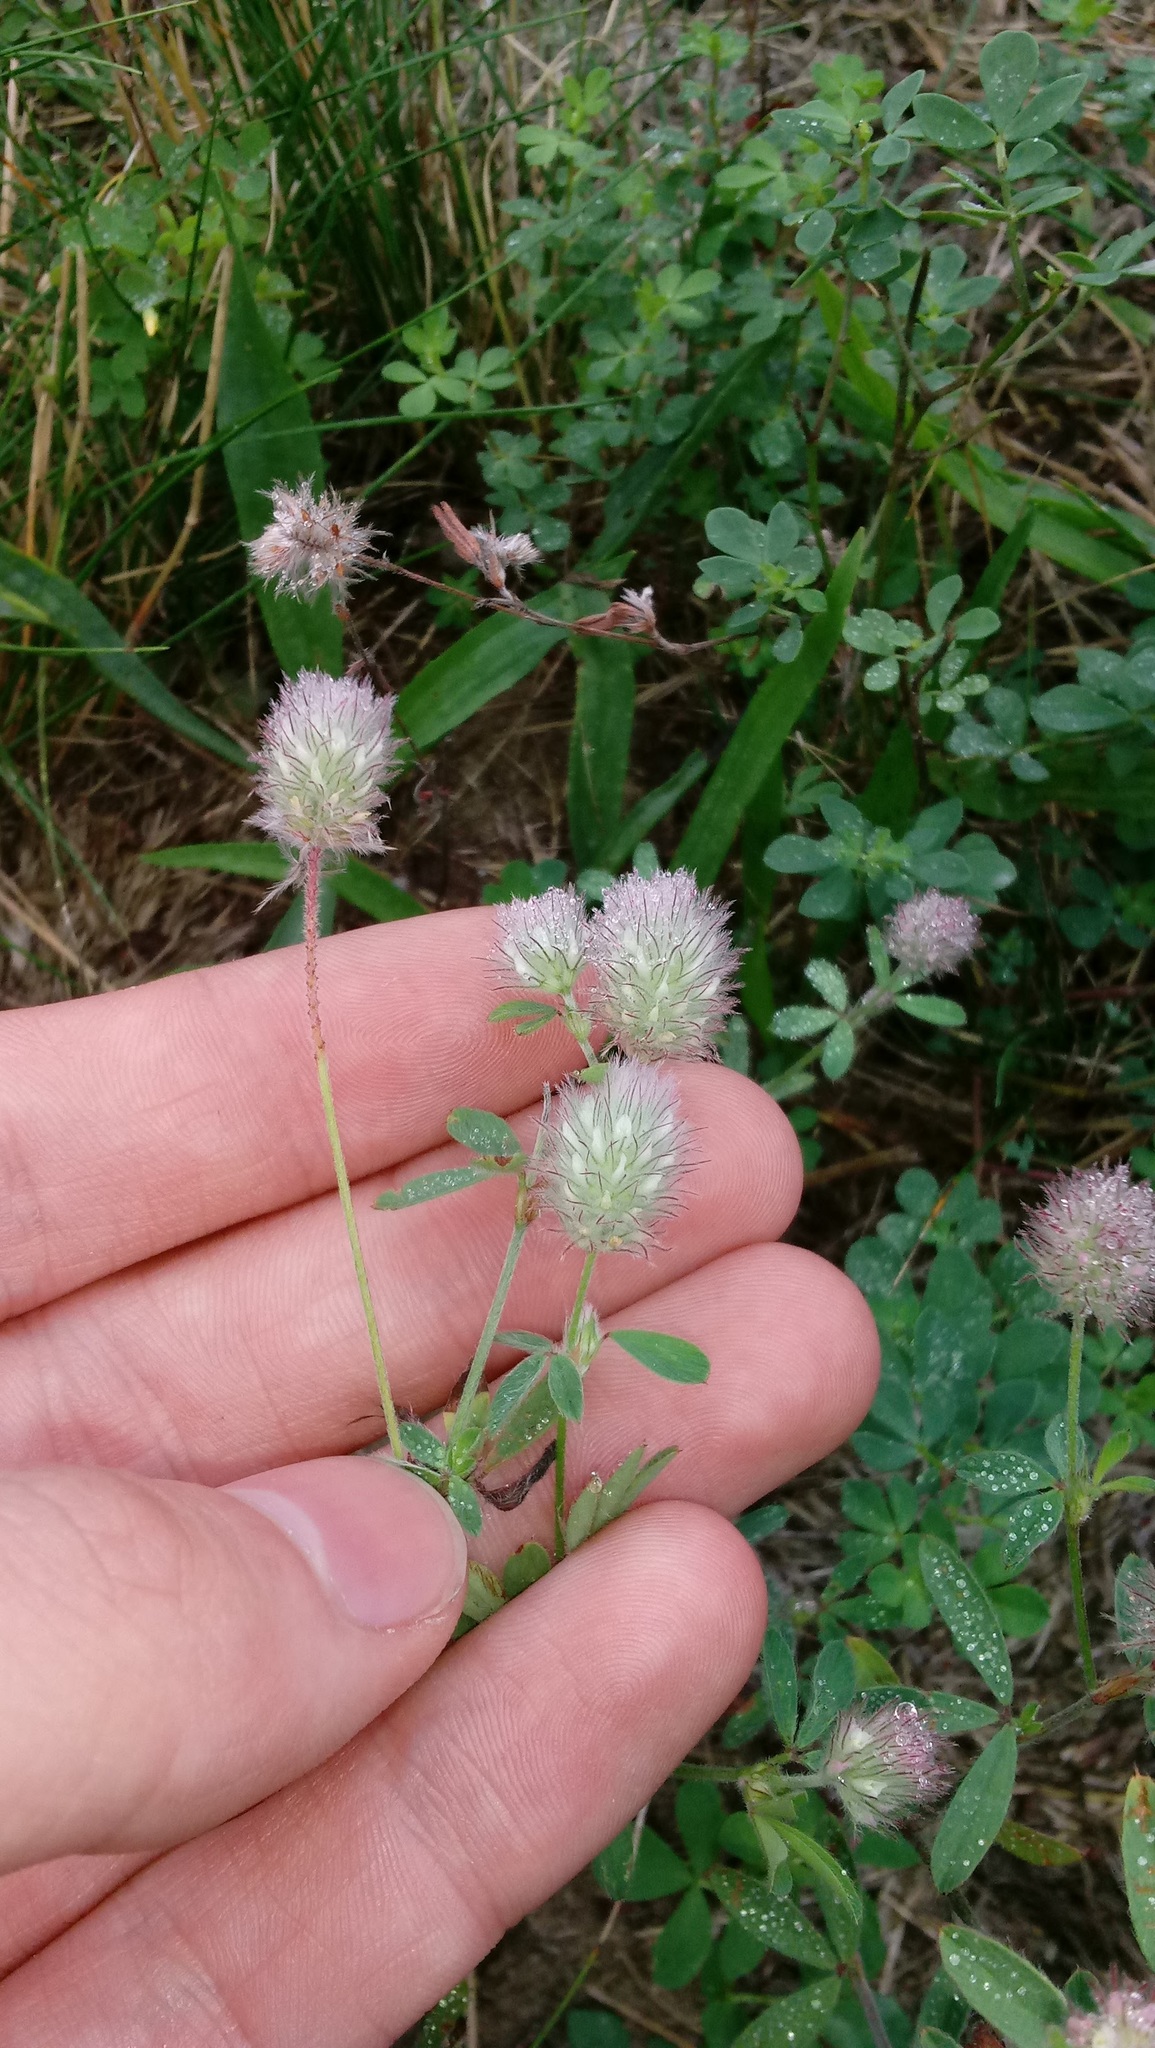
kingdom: Plantae
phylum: Tracheophyta
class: Magnoliopsida
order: Fabales
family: Fabaceae
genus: Trifolium
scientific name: Trifolium arvense
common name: Hare's-foot clover
